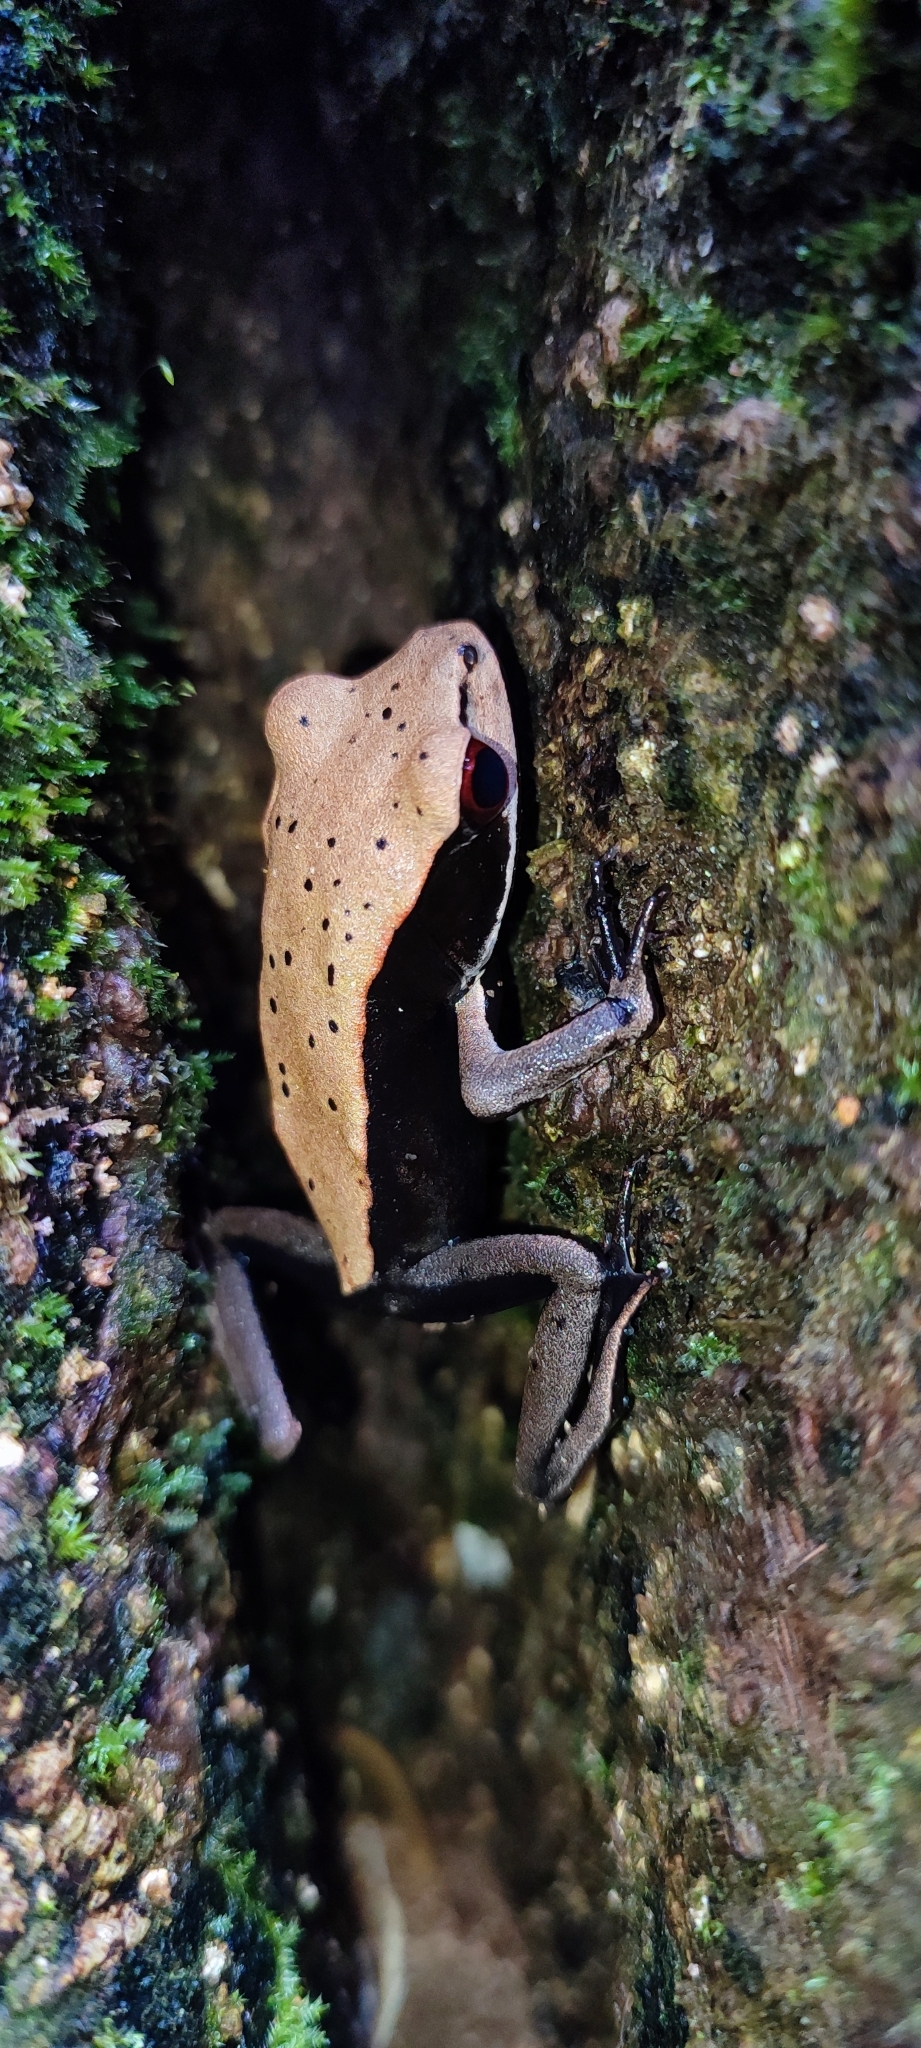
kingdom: Animalia
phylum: Chordata
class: Amphibia
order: Anura
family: Ranidae
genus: Clinotarsus
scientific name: Clinotarsus curtipes
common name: Bicoloured frog
